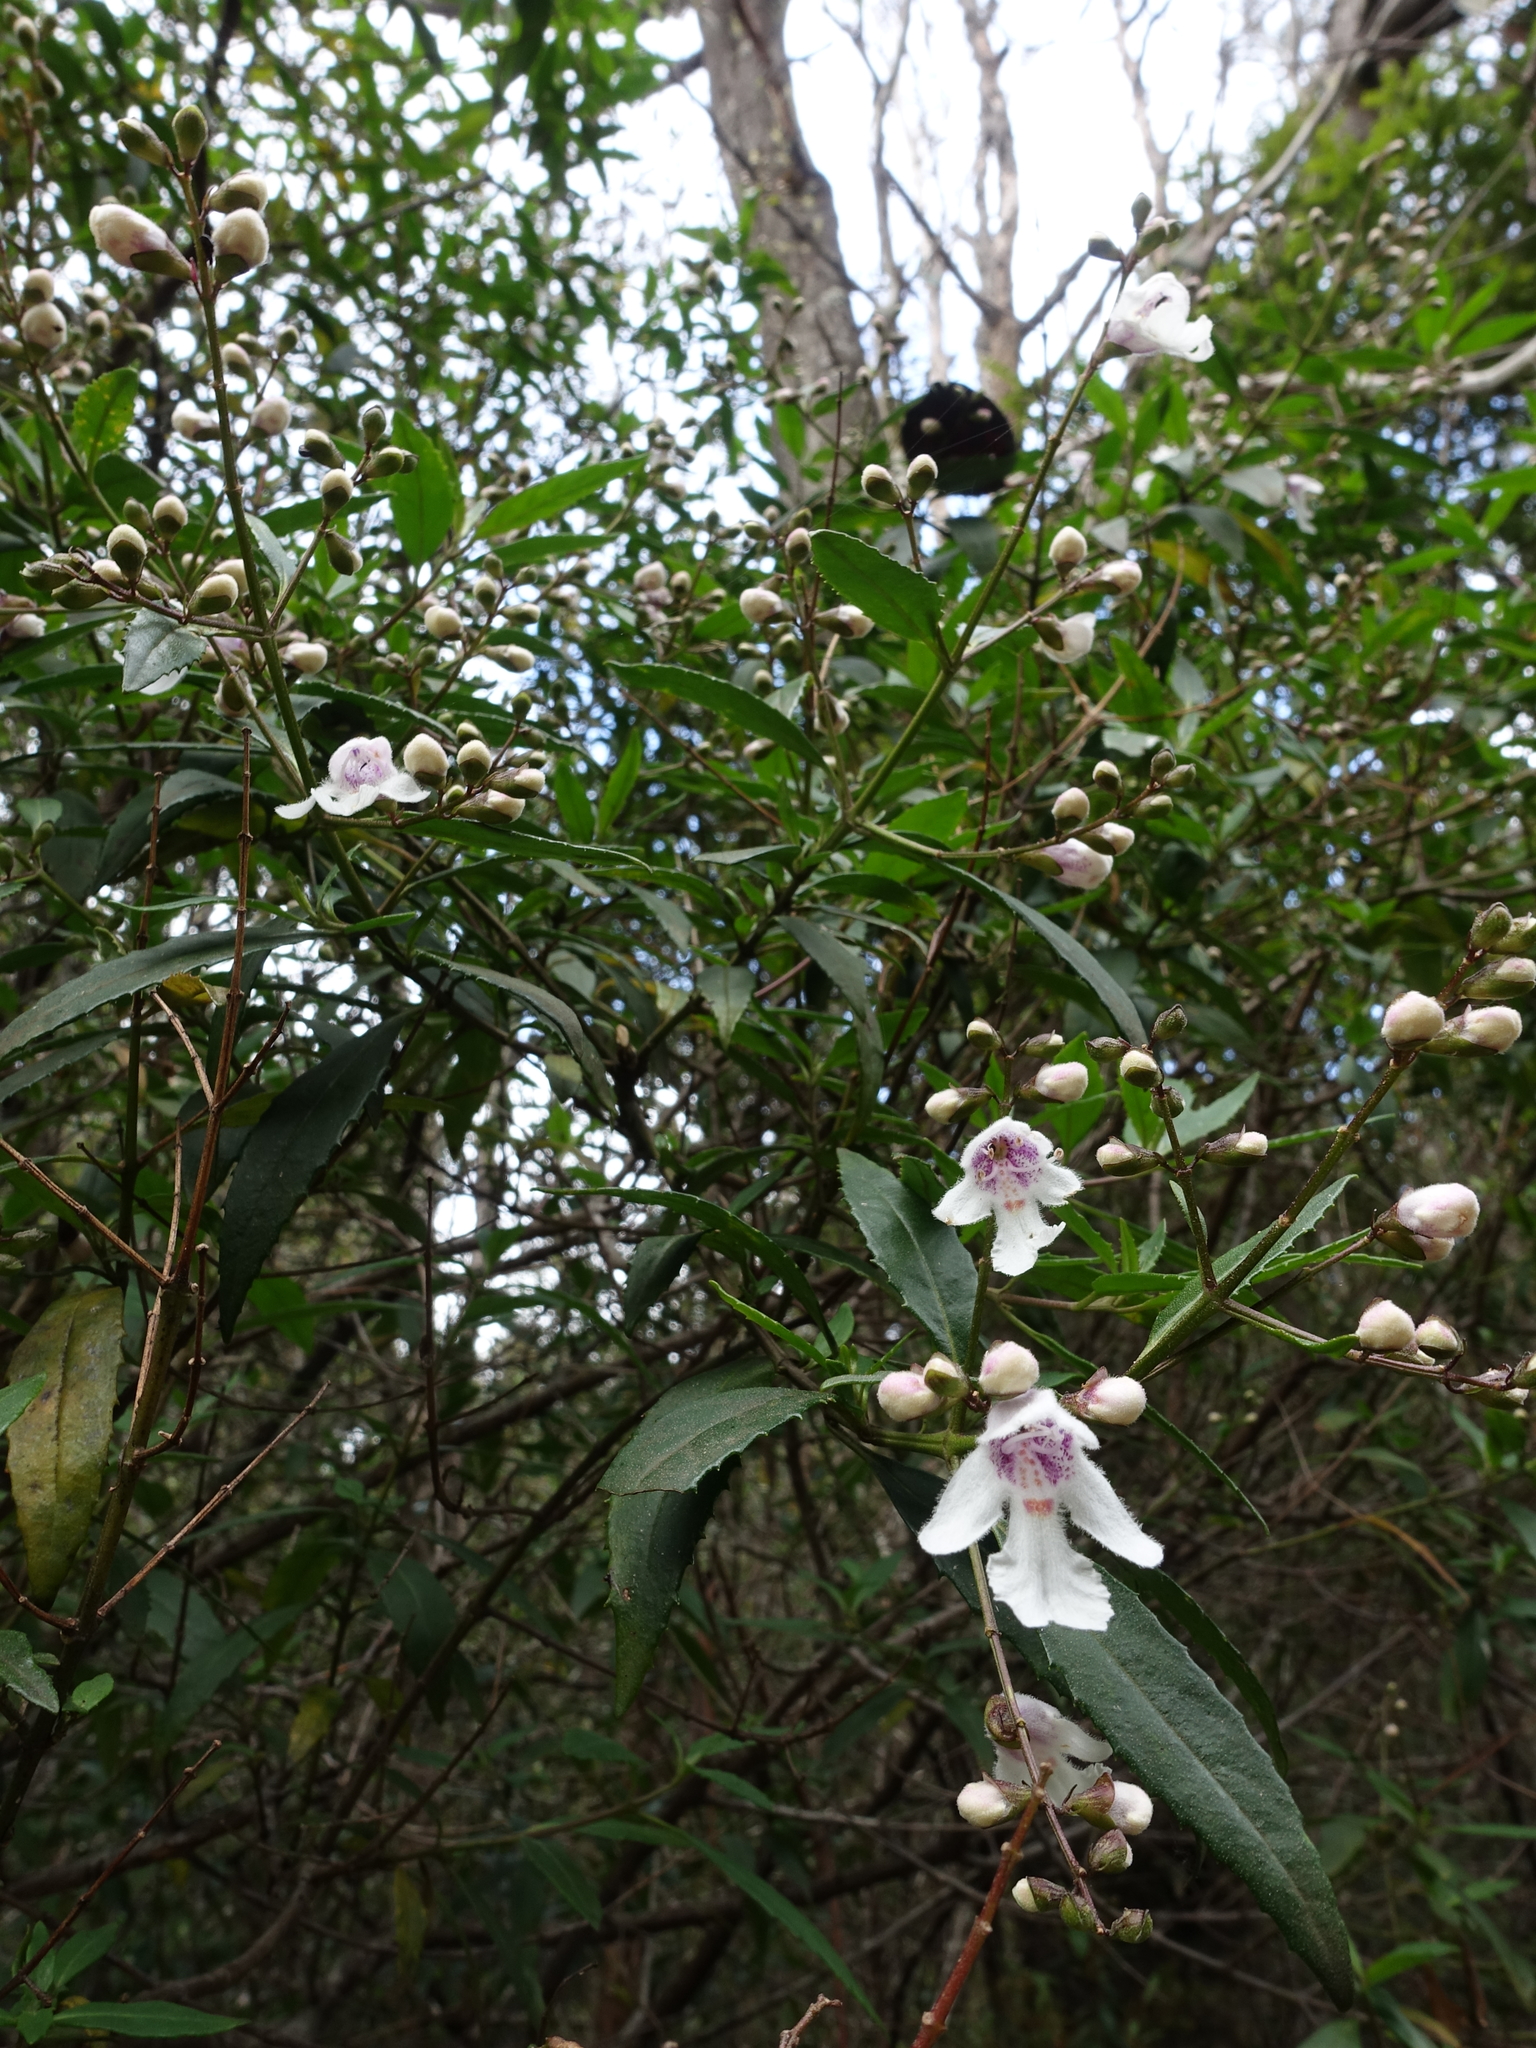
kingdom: Plantae
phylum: Tracheophyta
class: Magnoliopsida
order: Lamiales
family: Lamiaceae
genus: Prostanthera
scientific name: Prostanthera lasianthos
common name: Mountain-lilac
